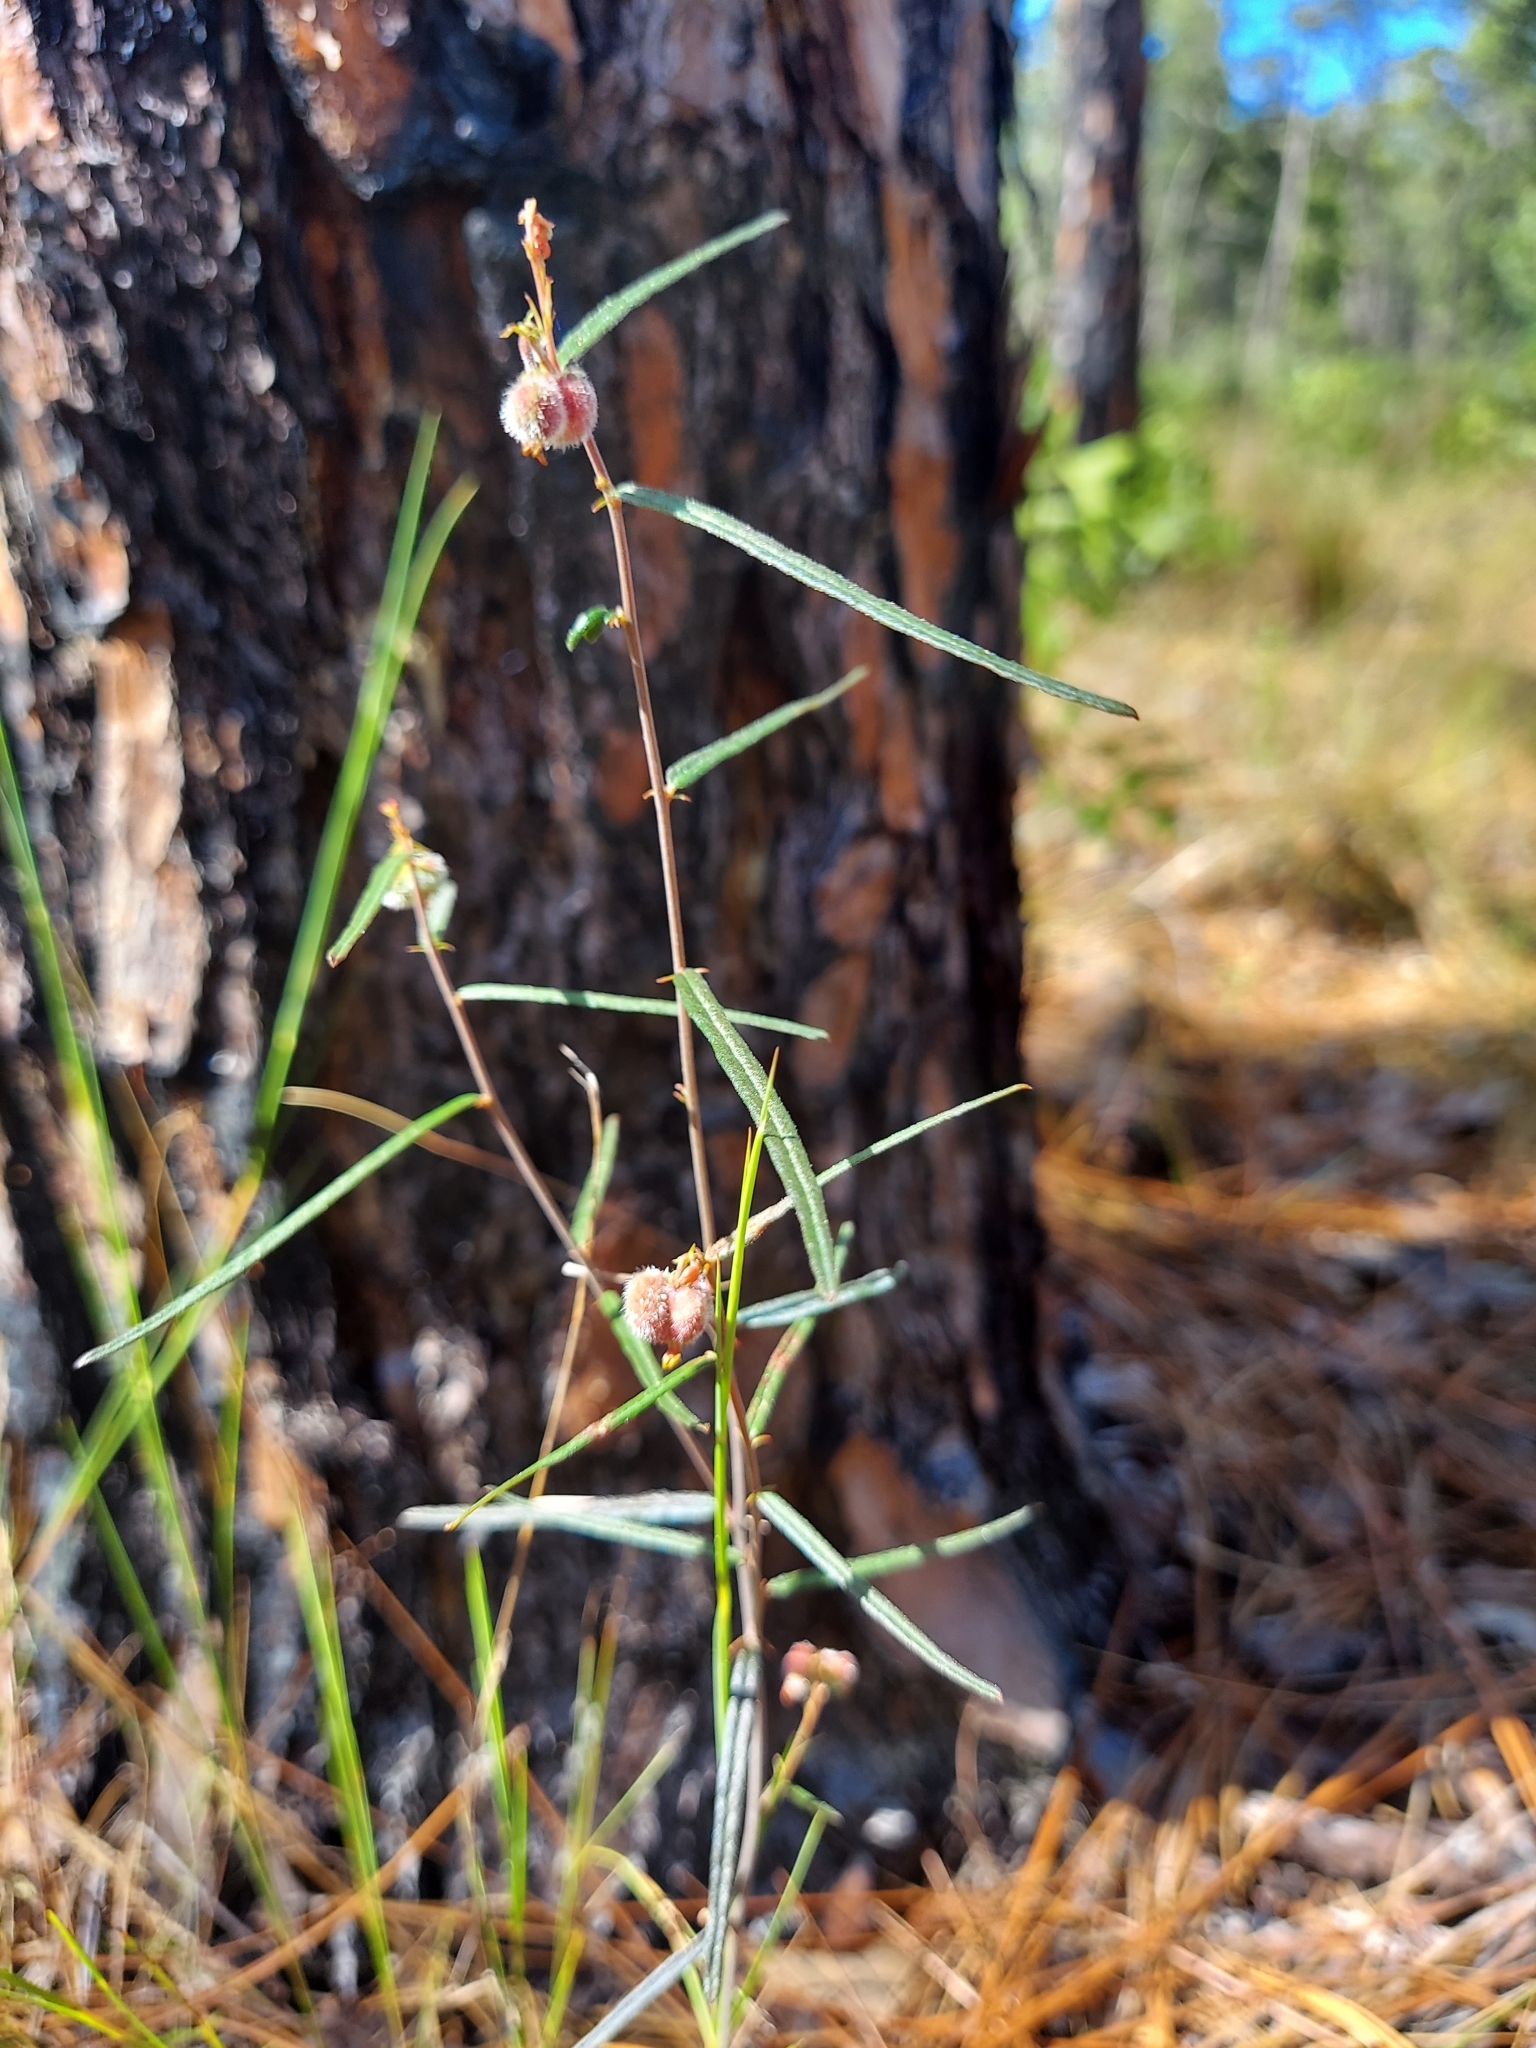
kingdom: Plantae
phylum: Tracheophyta
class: Magnoliopsida
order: Malpighiales
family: Euphorbiaceae
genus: Tragia
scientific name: Tragia urens
